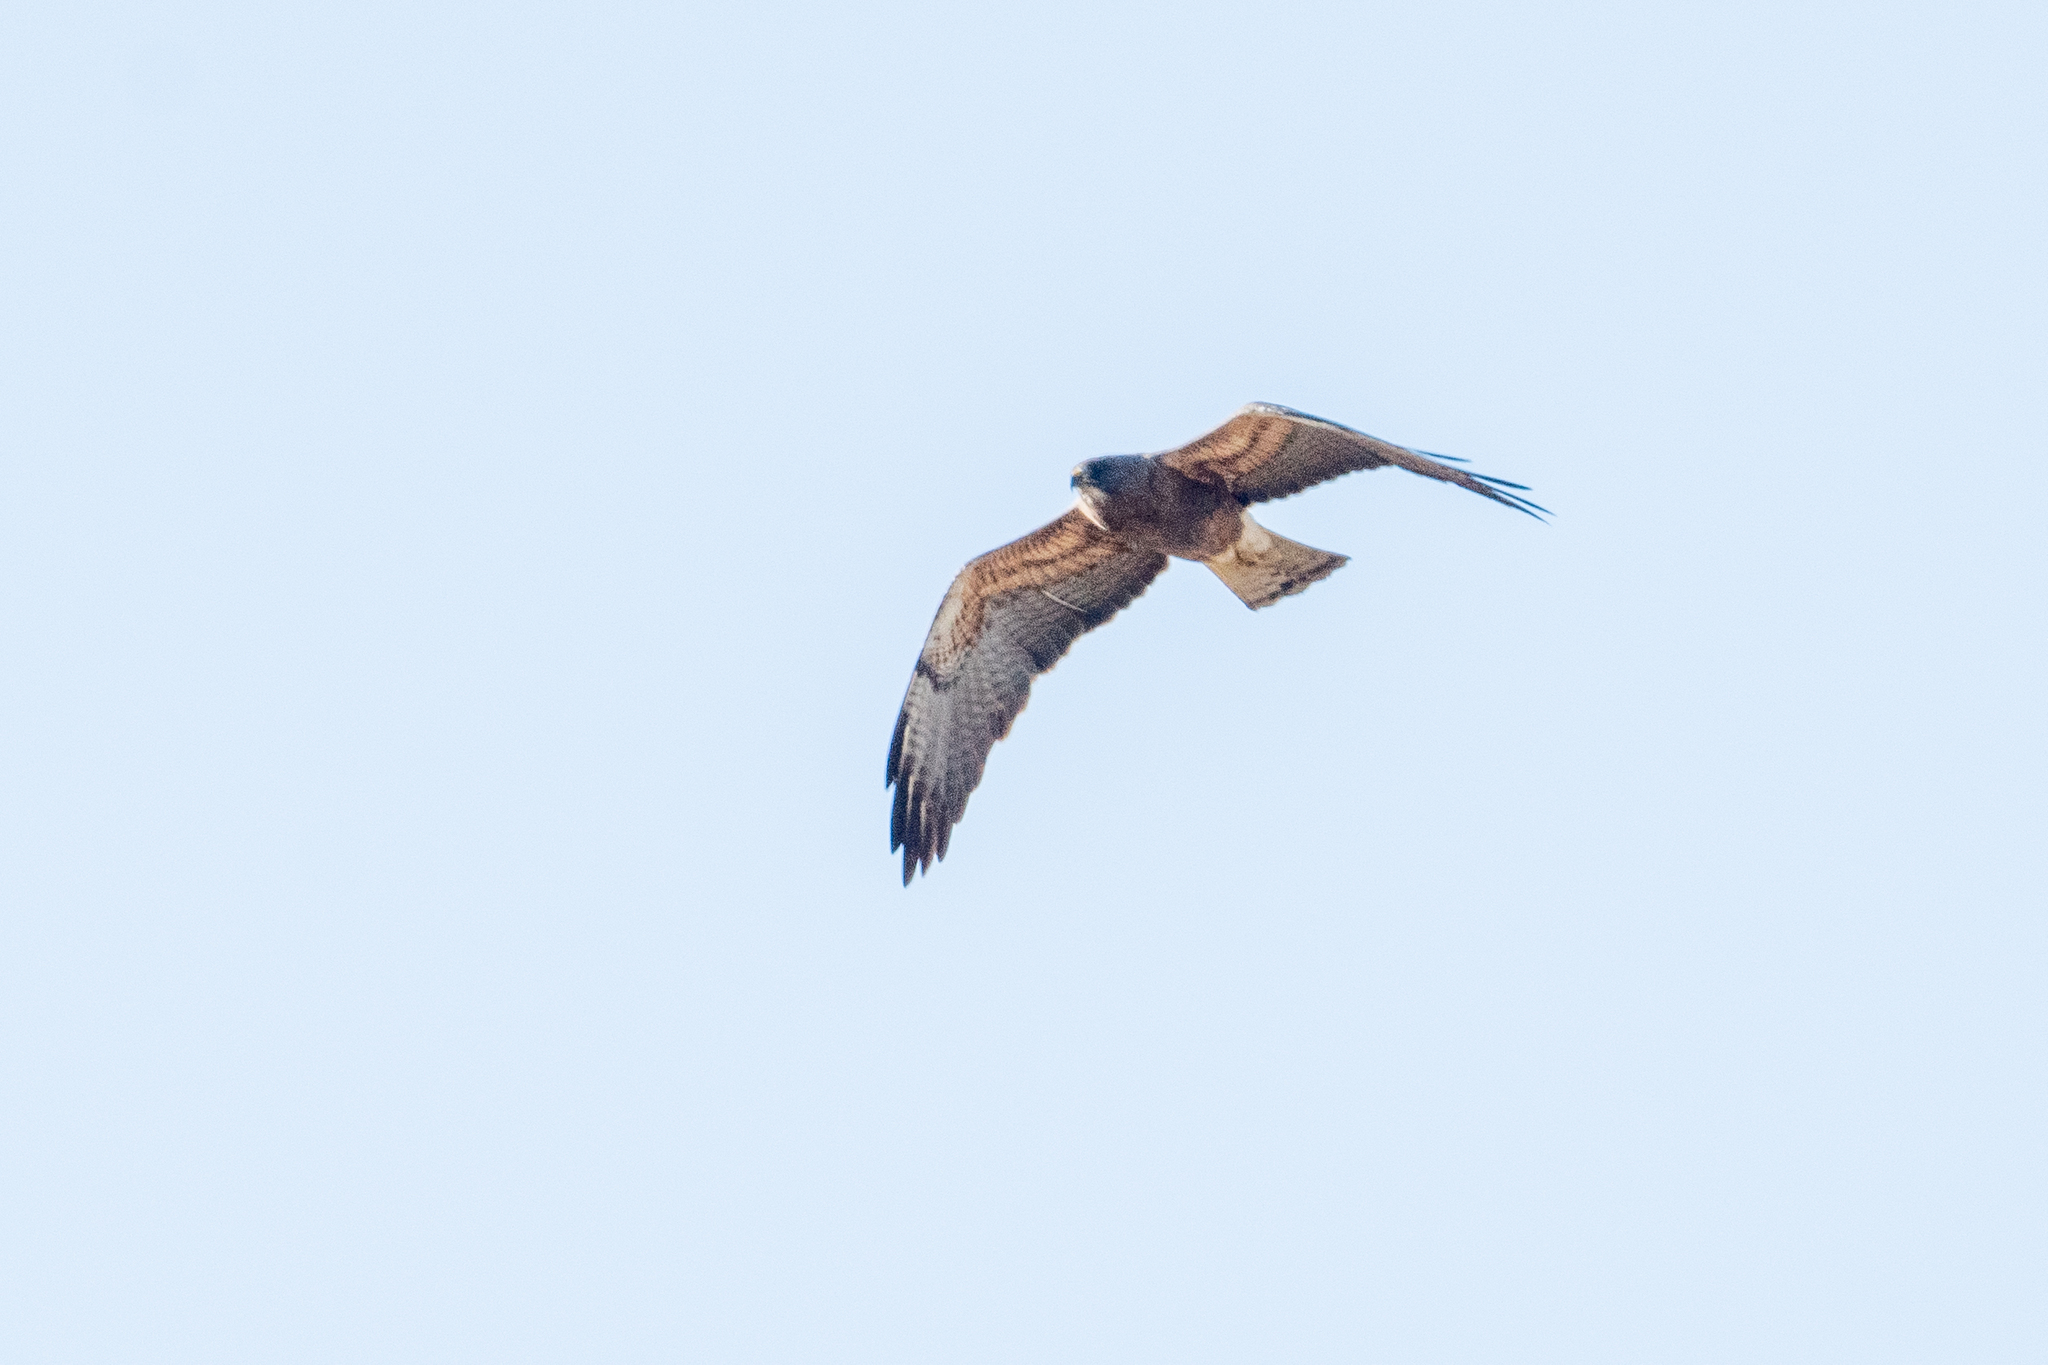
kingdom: Animalia
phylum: Chordata
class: Aves
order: Accipitriformes
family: Accipitridae
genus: Buteo
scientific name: Buteo swainsoni
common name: Swainson's hawk
